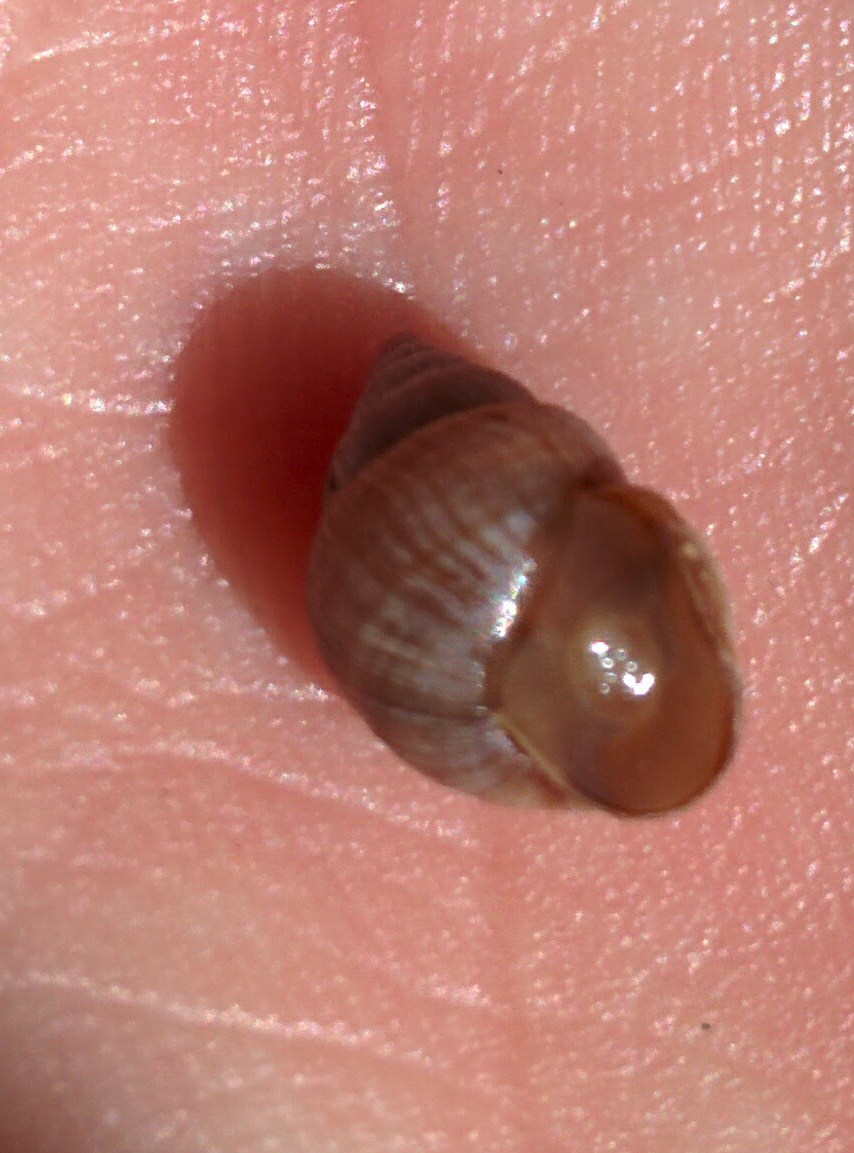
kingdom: Animalia
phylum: Mollusca
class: Gastropoda
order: Stylommatophora
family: Bulimulidae
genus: Naesiotus
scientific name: Naesiotus
